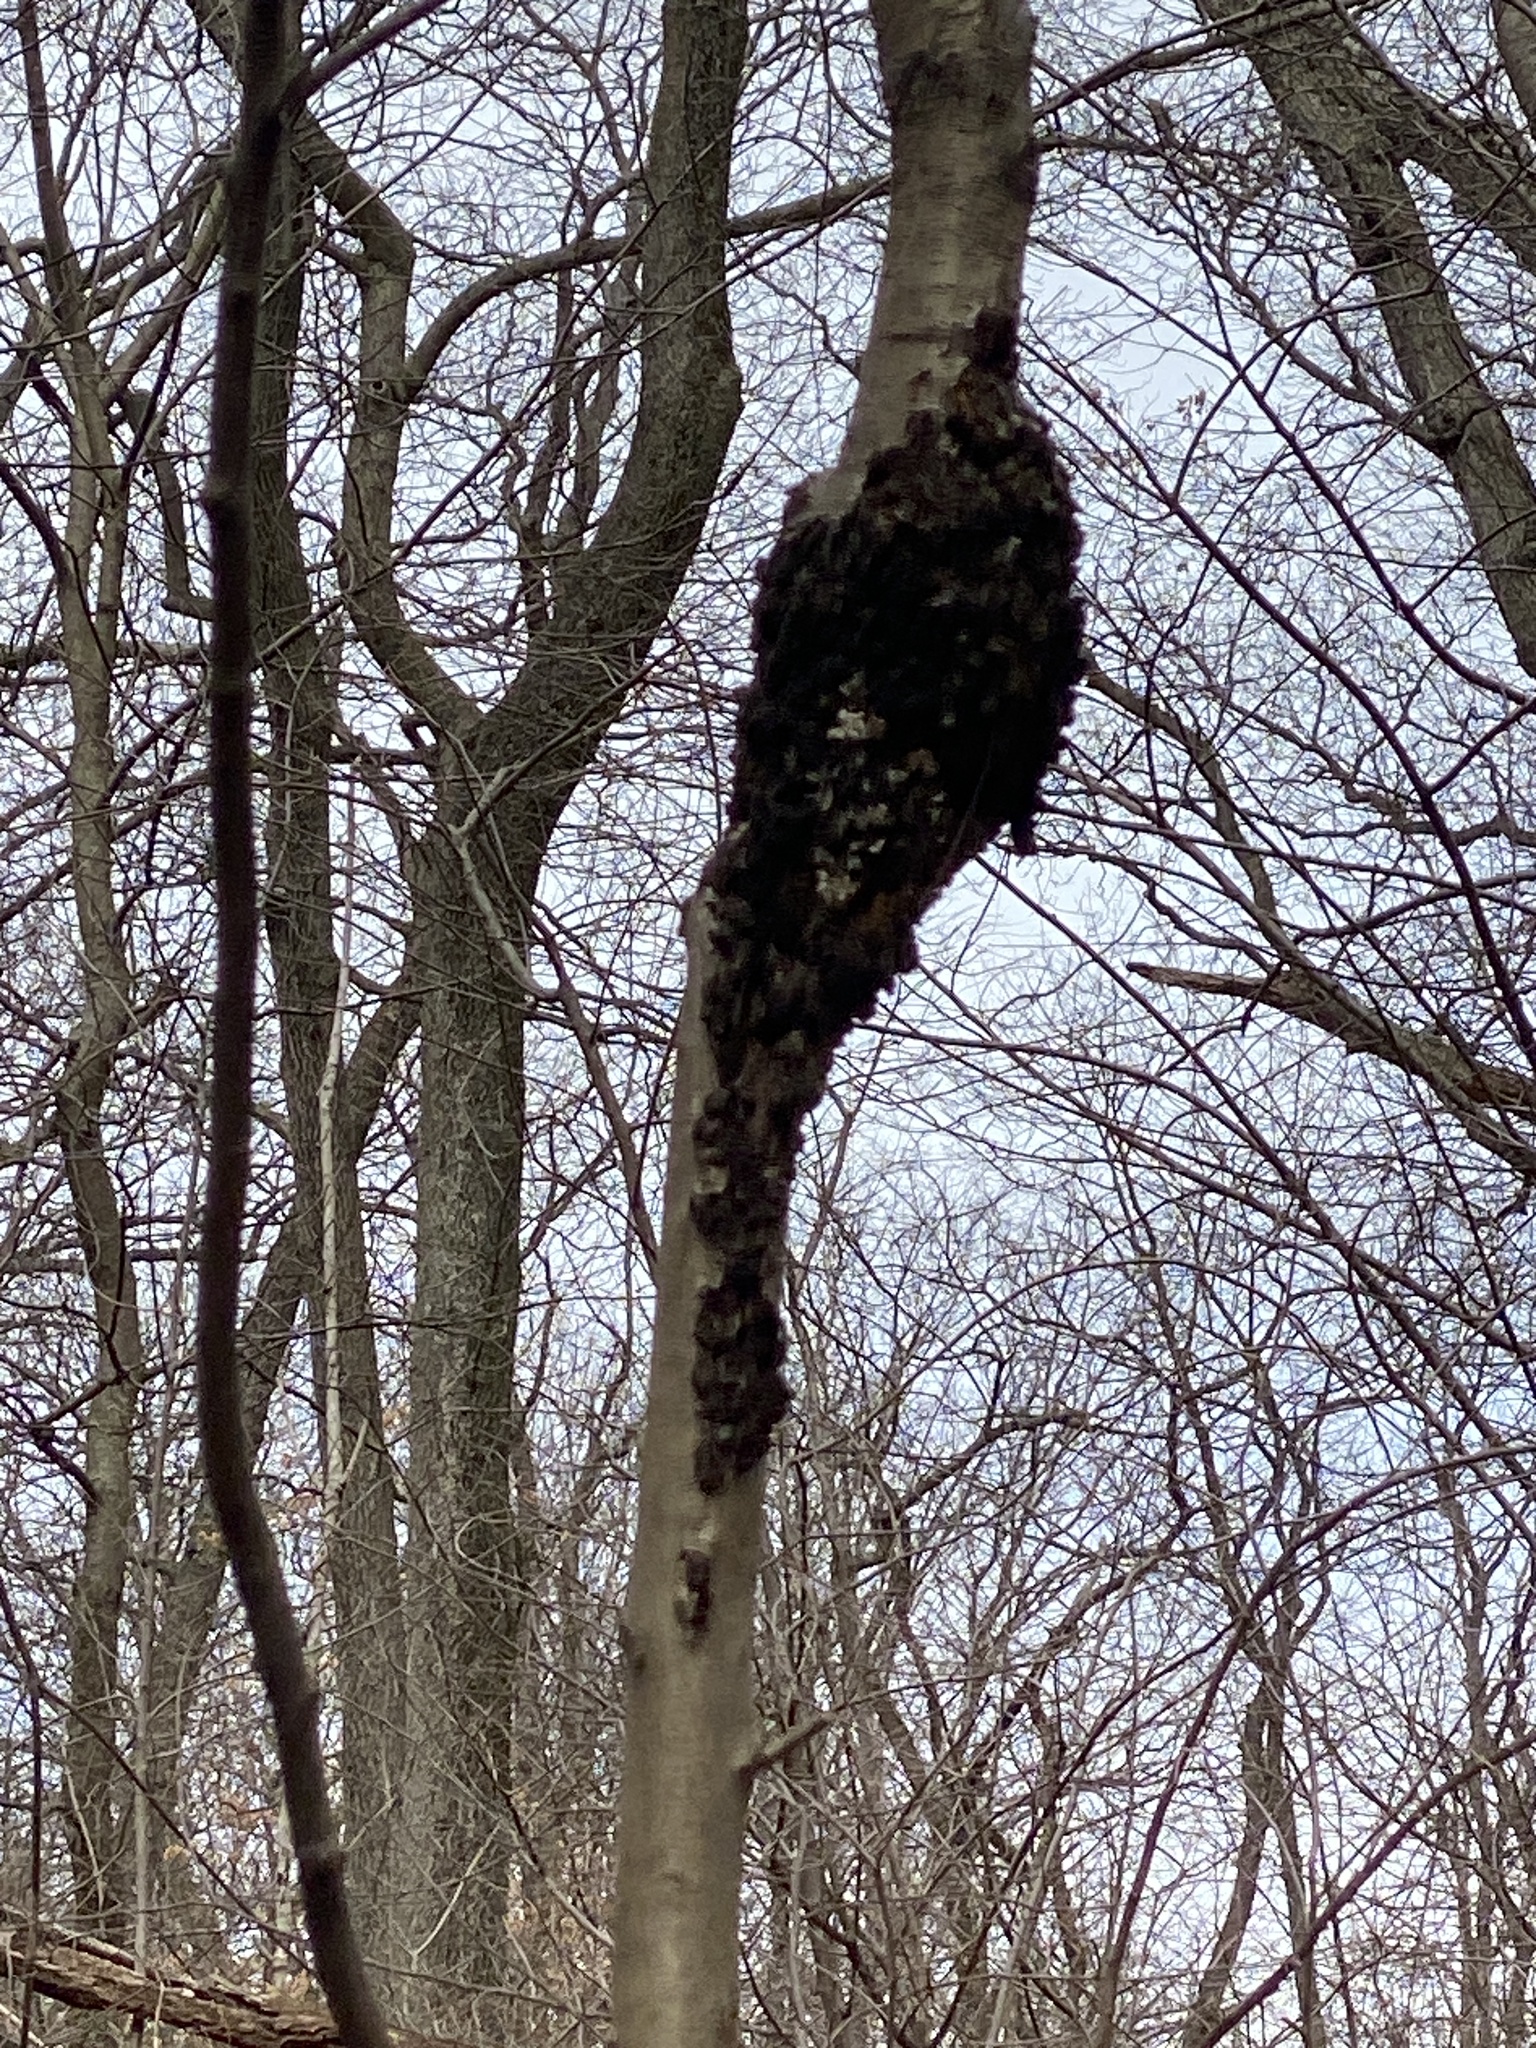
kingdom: Fungi
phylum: Ascomycota
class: Dothideomycetes
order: Venturiales
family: Venturiaceae
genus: Apiosporina
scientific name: Apiosporina morbosa
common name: Black knot
